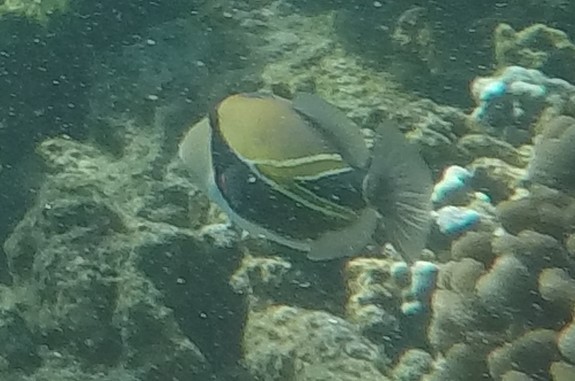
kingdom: Animalia
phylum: Chordata
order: Tetraodontiformes
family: Balistidae
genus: Rhinecanthus
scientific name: Rhinecanthus rectangulus
